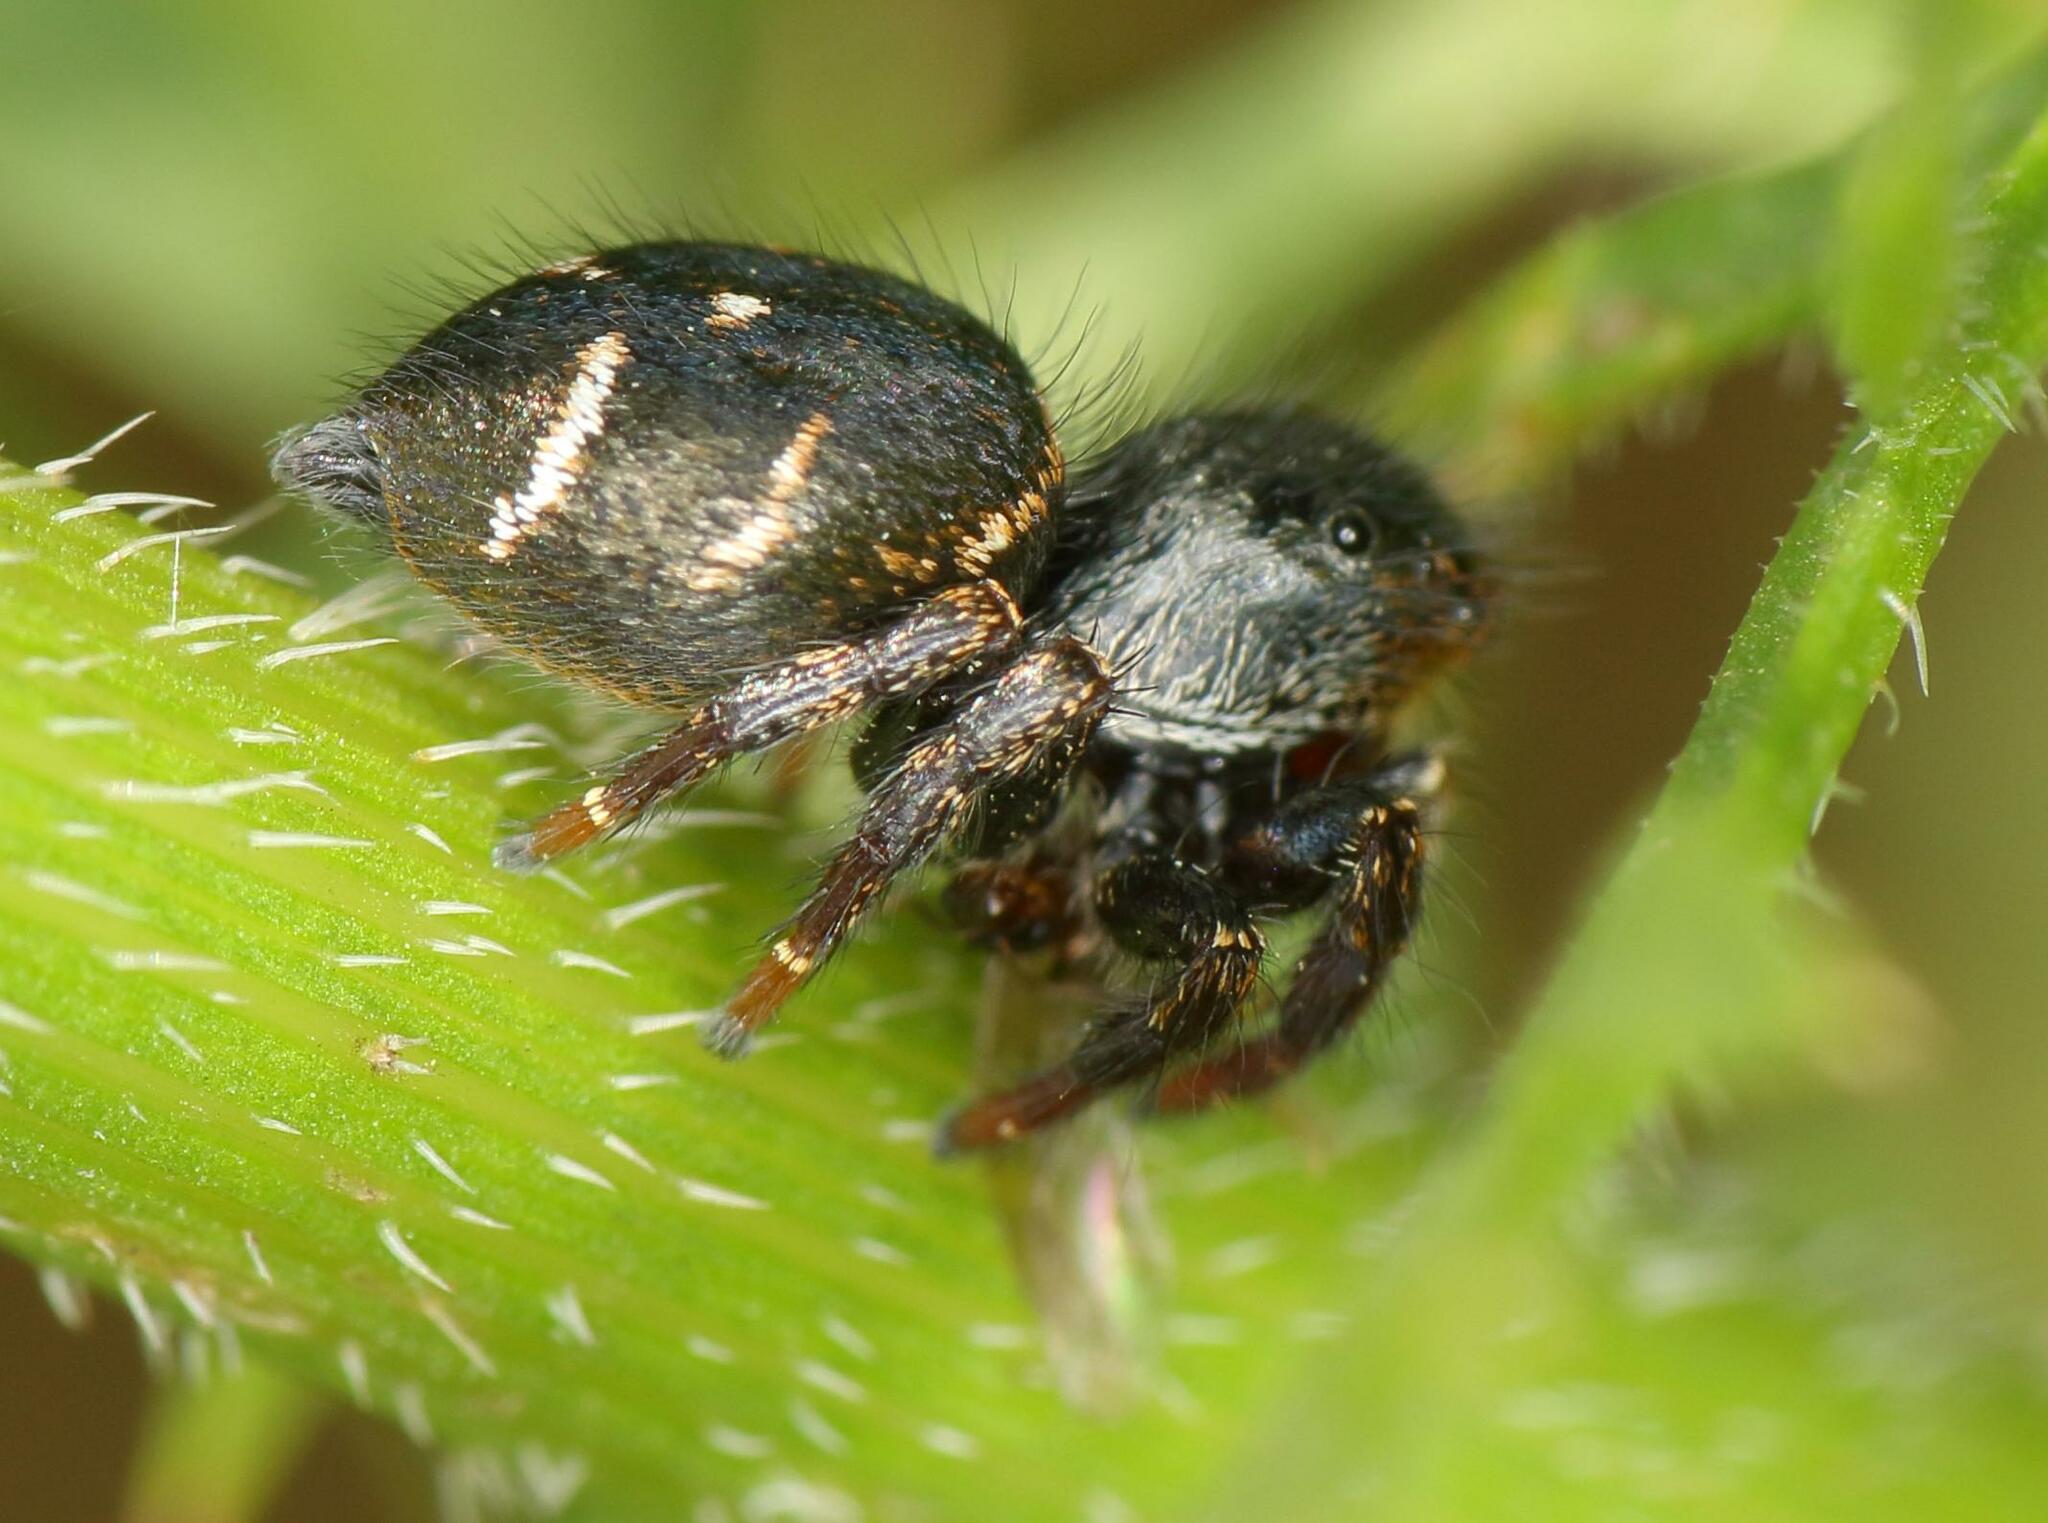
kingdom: Animalia
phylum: Arthropoda
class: Arachnida
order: Araneae
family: Salticidae
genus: Baryphas
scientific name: Baryphas ahenus
